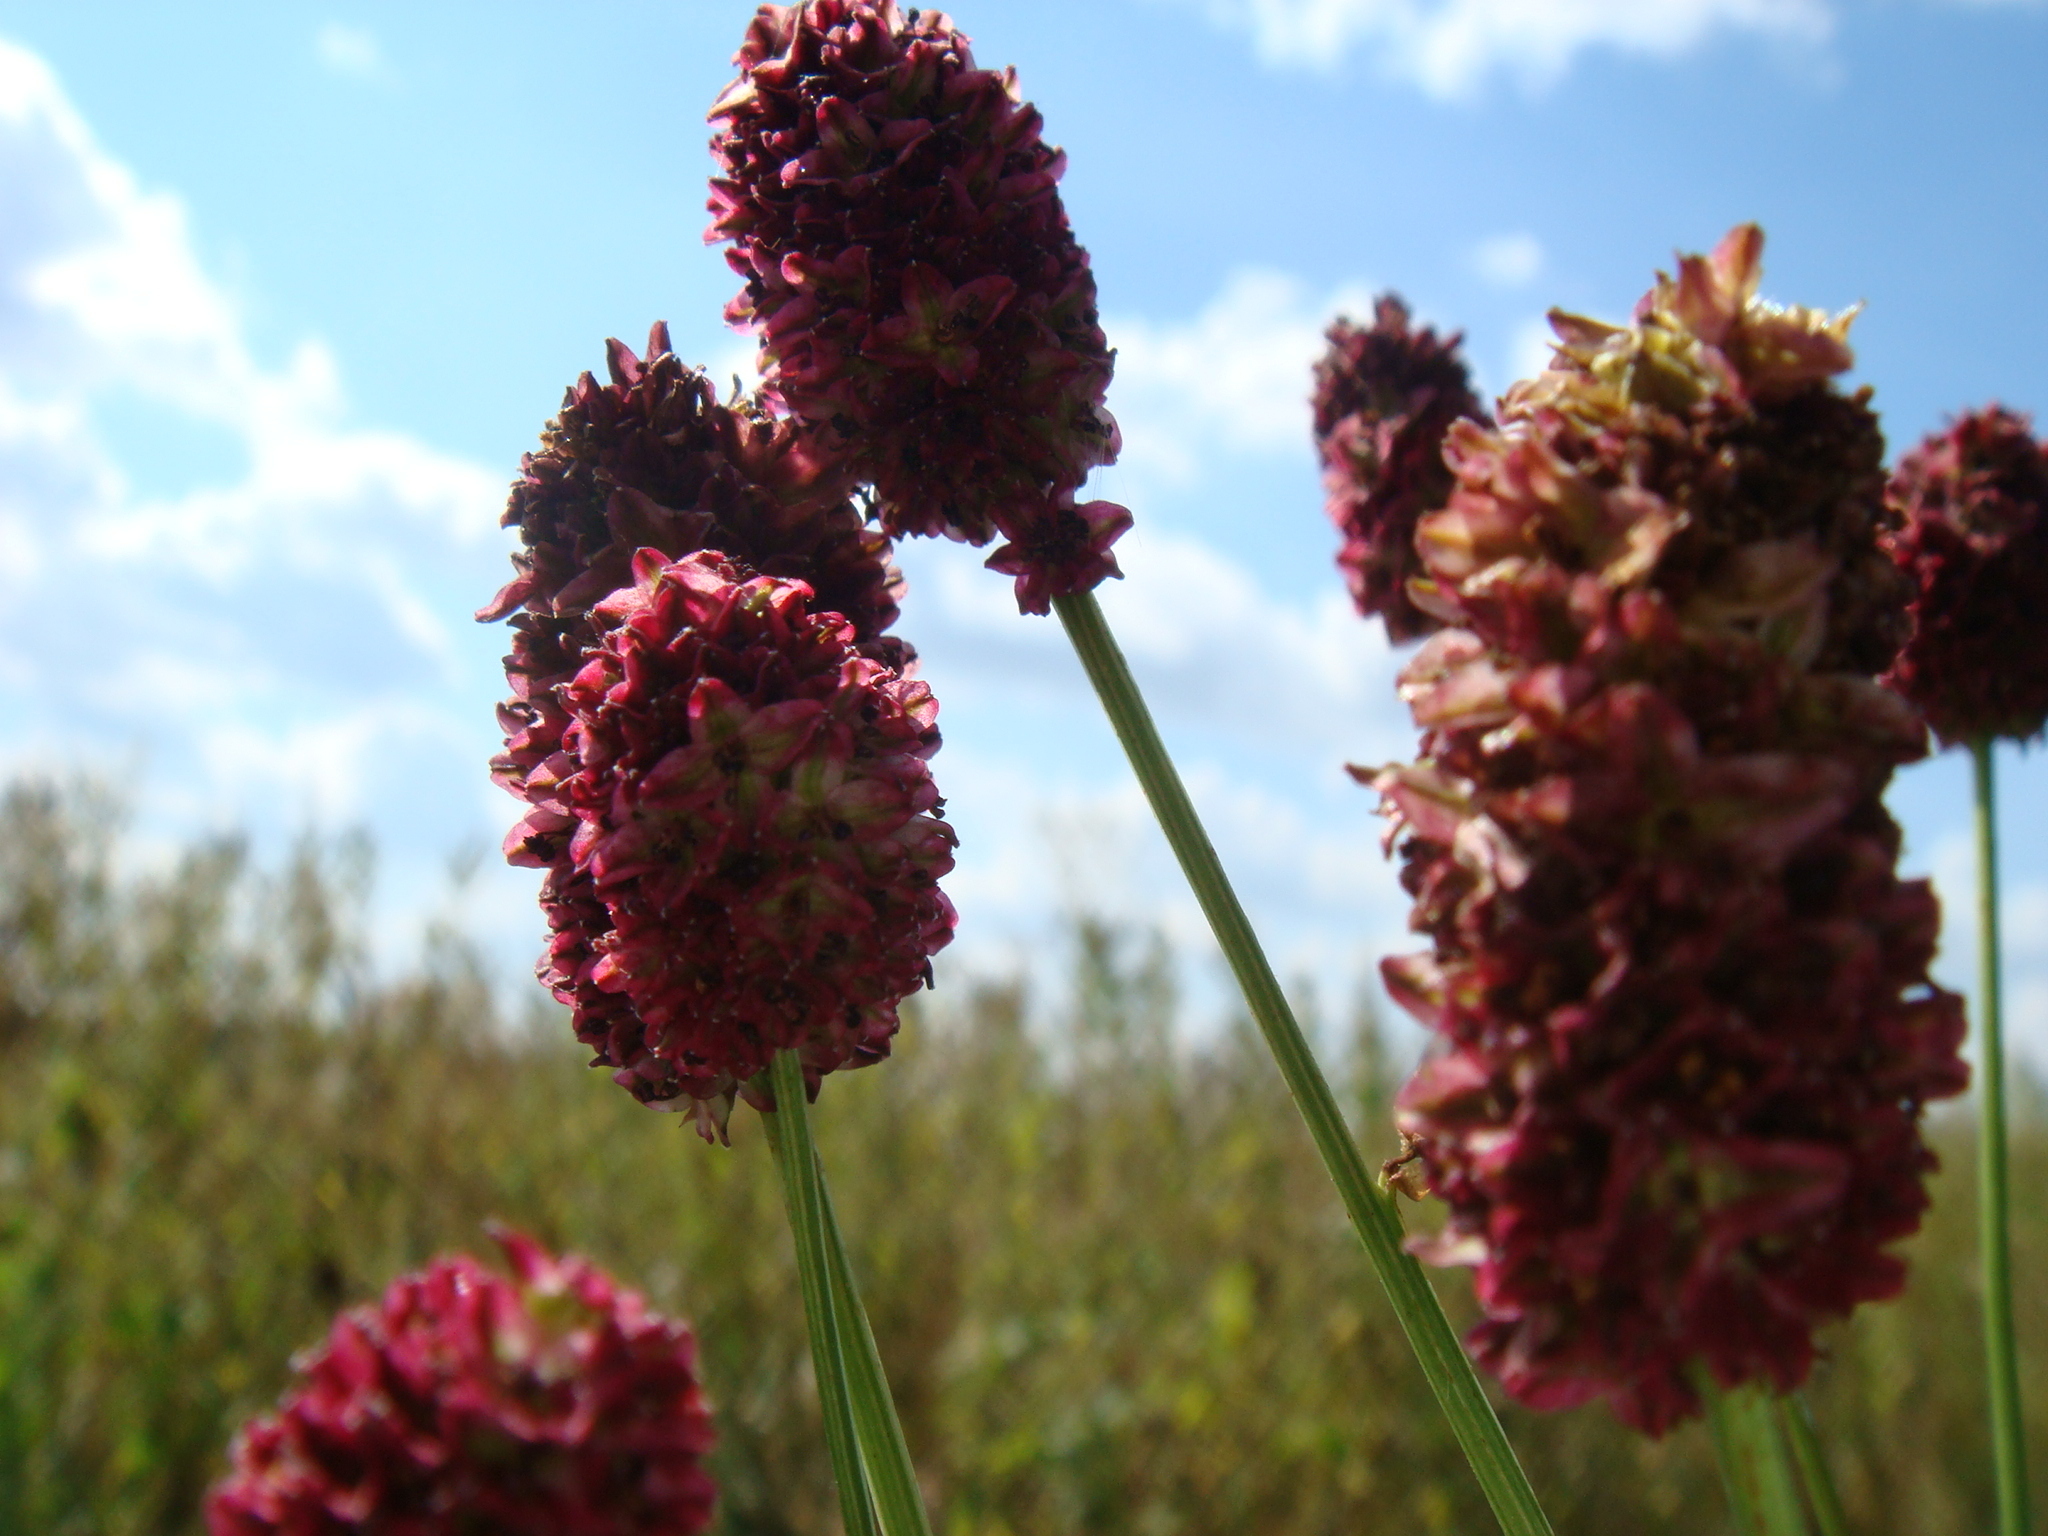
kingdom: Plantae
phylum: Tracheophyta
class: Magnoliopsida
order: Rosales
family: Rosaceae
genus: Sanguisorba
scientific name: Sanguisorba officinalis
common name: Great burnet
